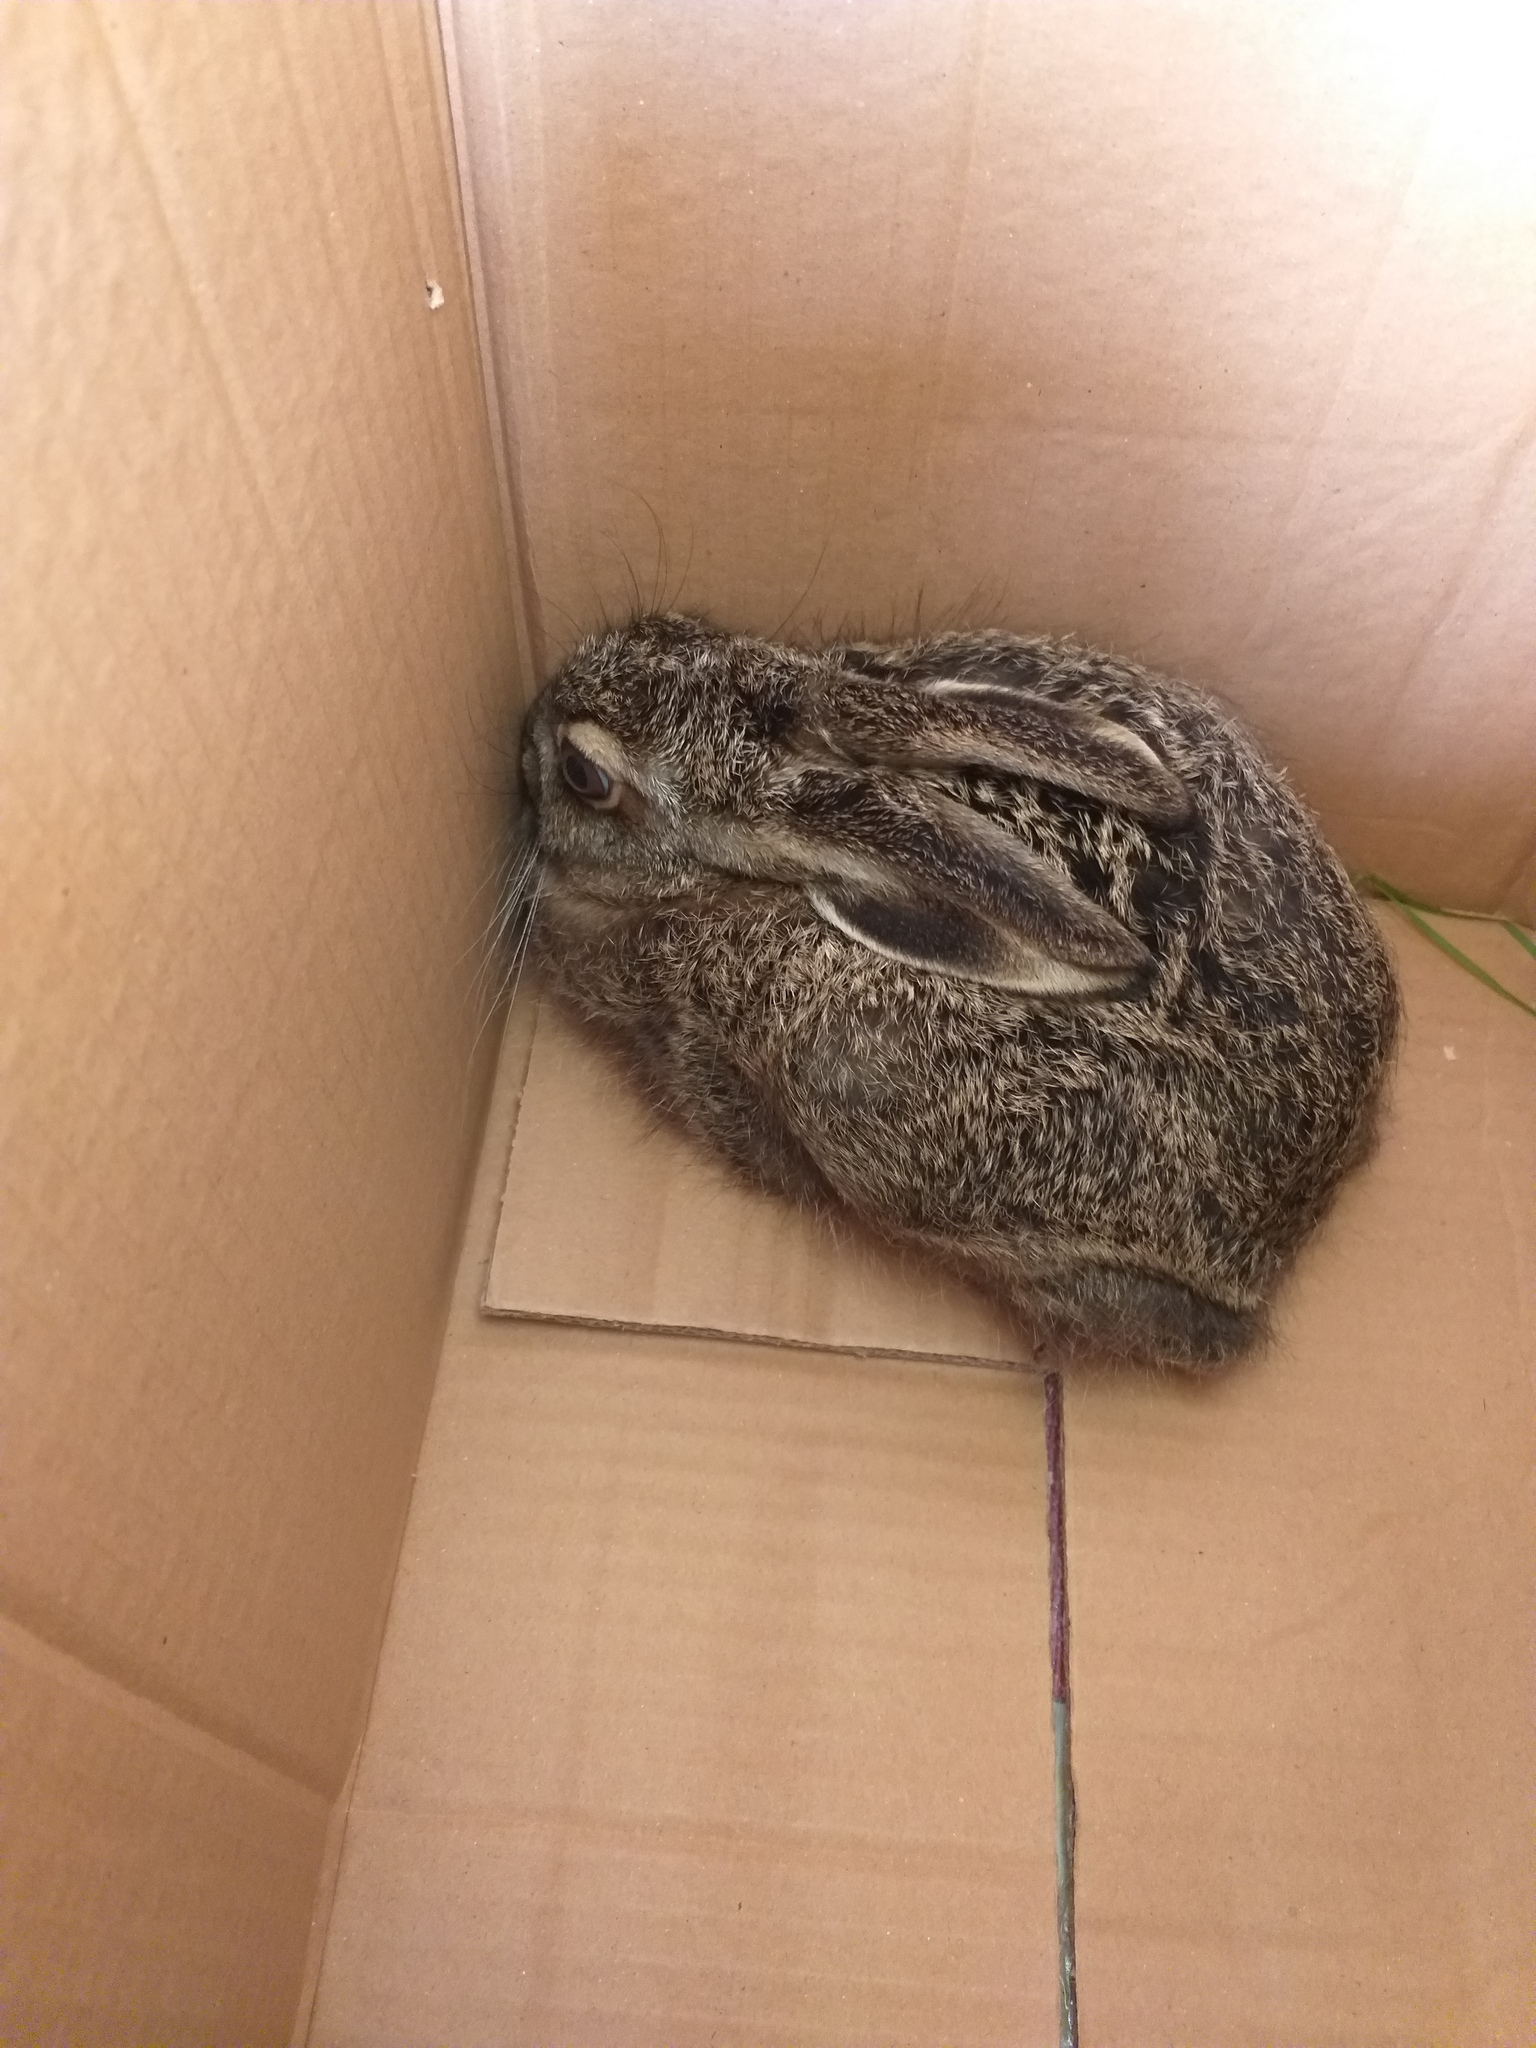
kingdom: Animalia
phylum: Chordata
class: Mammalia
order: Lagomorpha
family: Leporidae
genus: Lepus
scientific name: Lepus europaeus
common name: European hare
